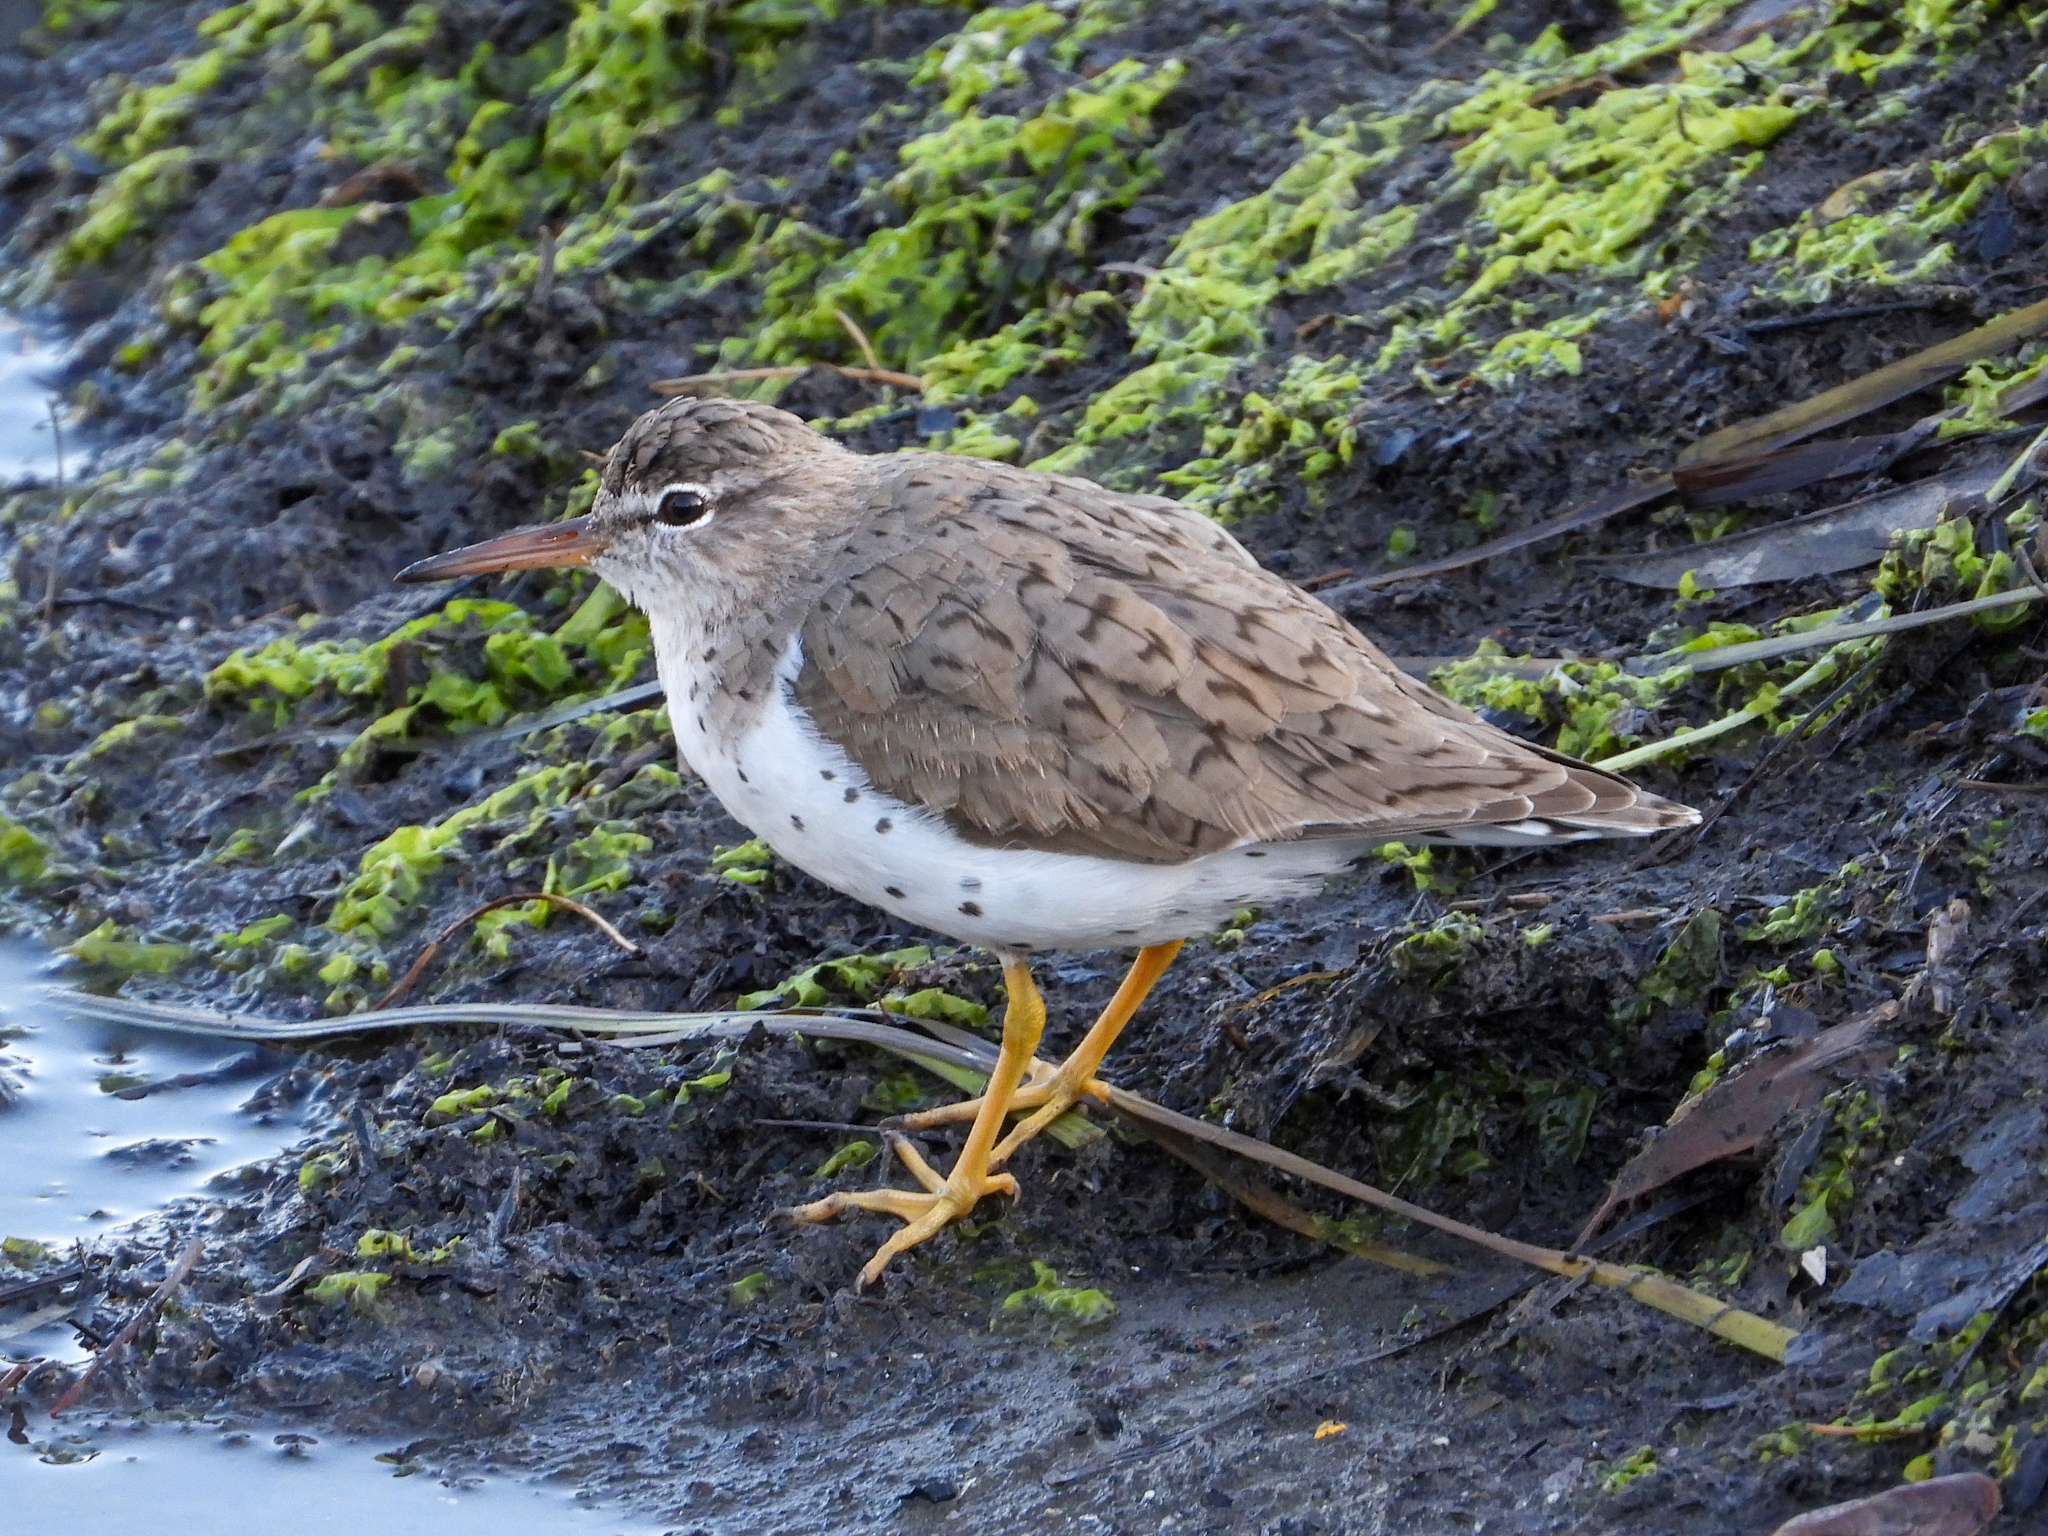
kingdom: Animalia
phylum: Chordata
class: Aves
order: Charadriiformes
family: Scolopacidae
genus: Actitis
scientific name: Actitis macularius
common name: Spotted sandpiper
